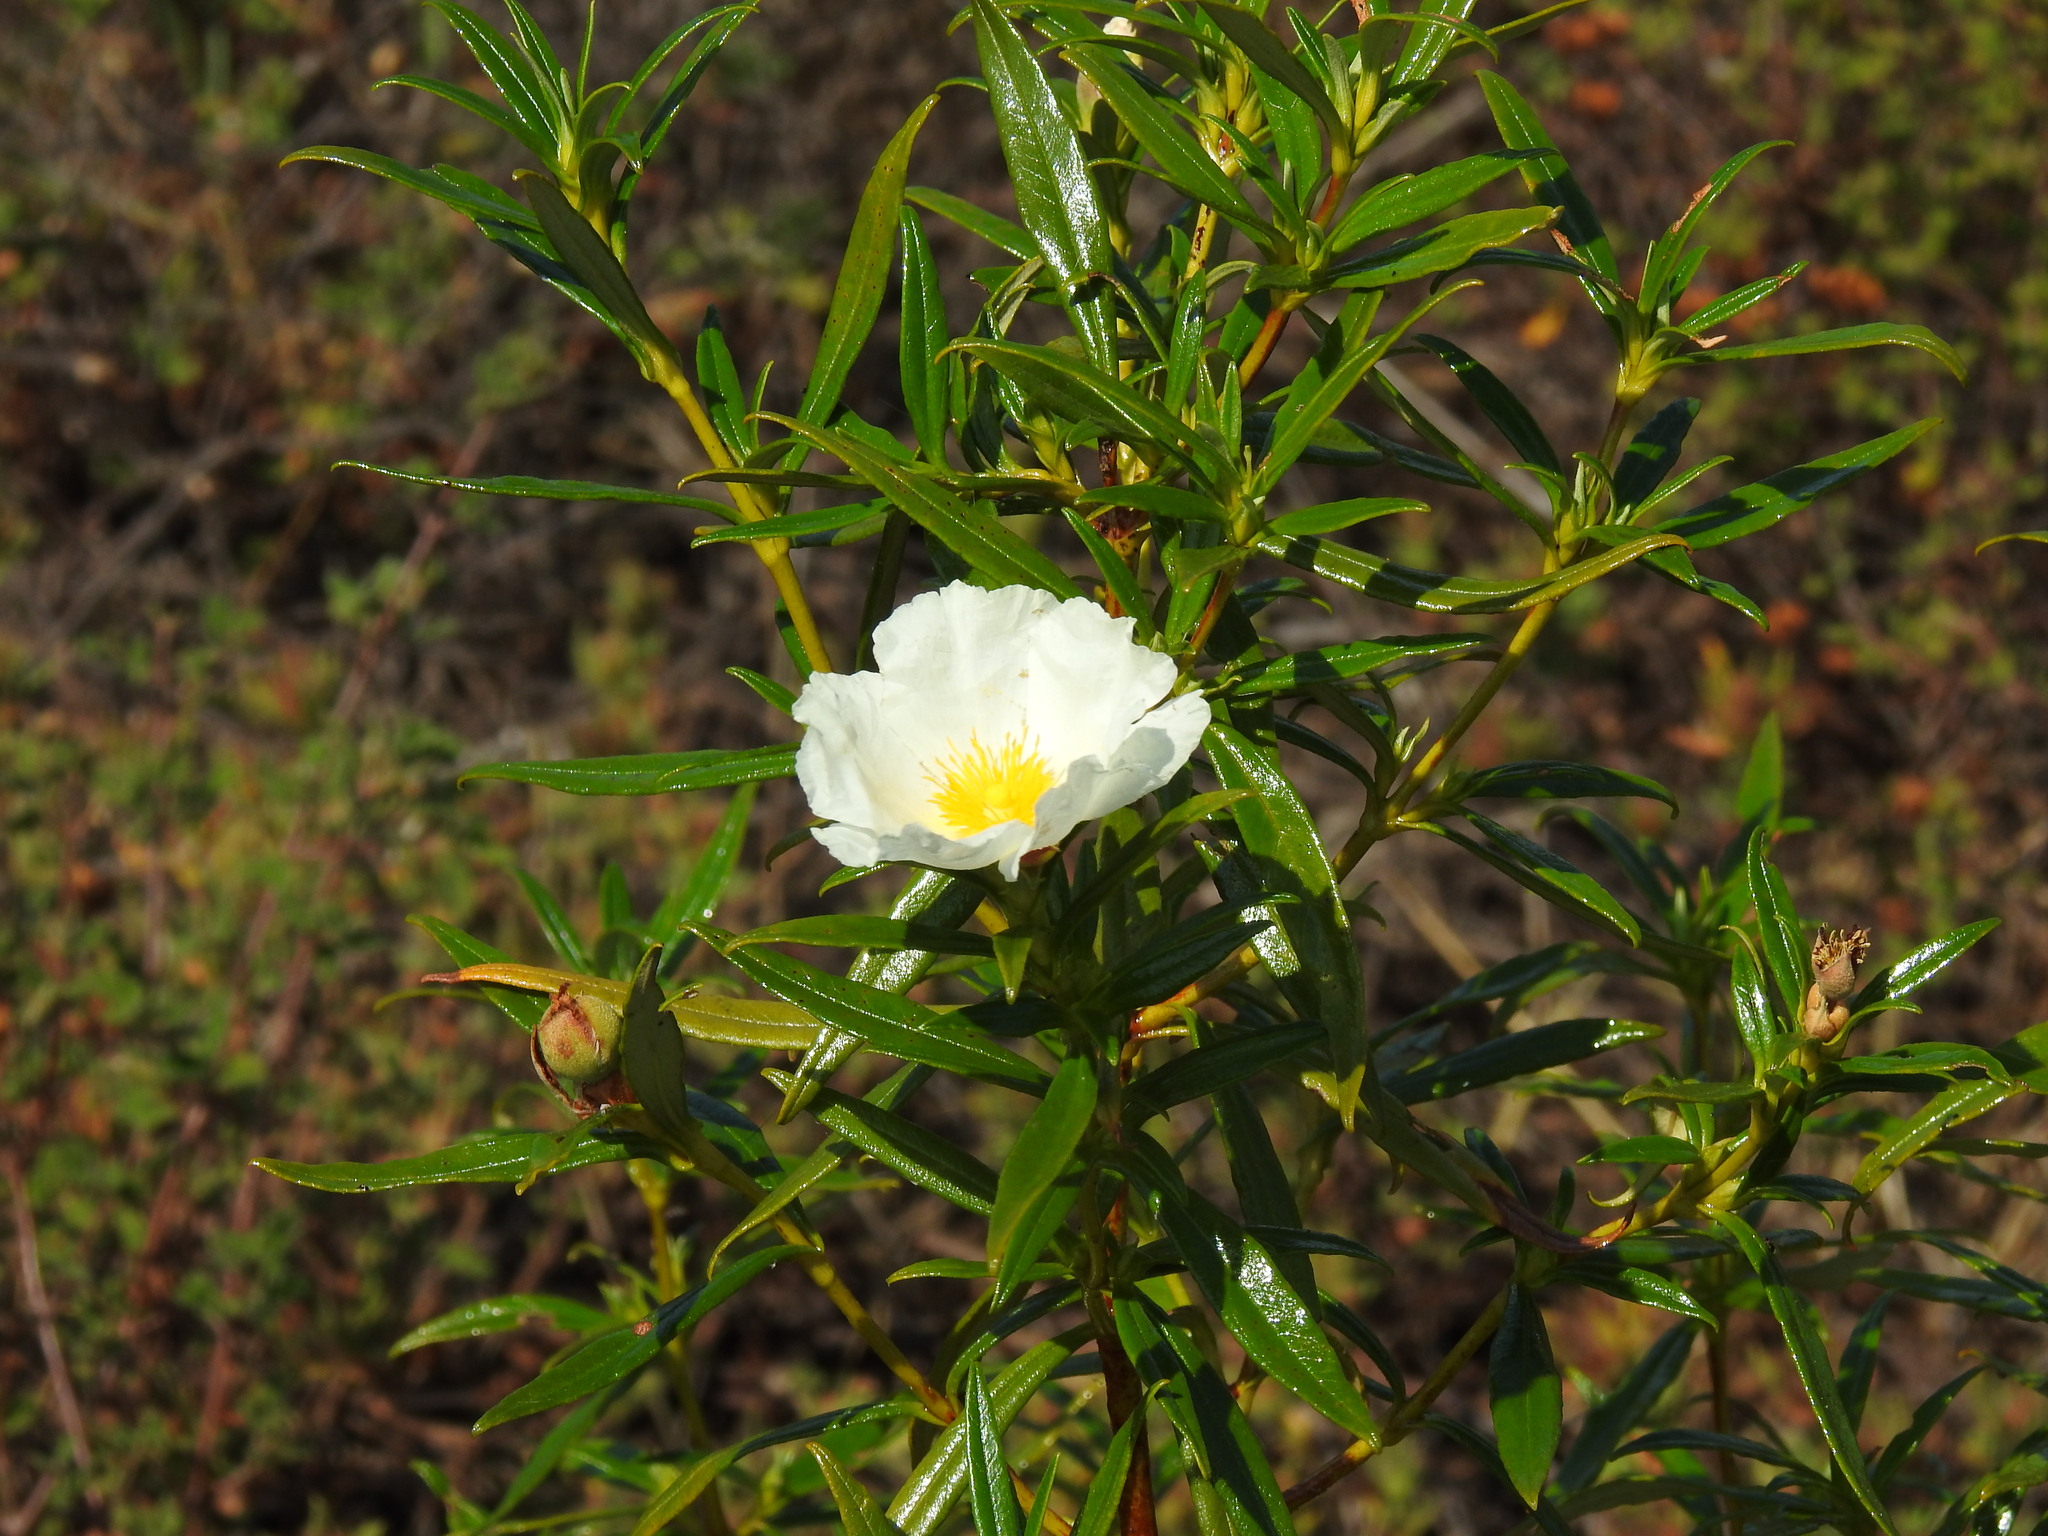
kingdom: Plantae
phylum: Tracheophyta
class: Magnoliopsida
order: Malvales
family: Cistaceae
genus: Cistus
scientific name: Cistus ladanifer
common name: Common gum cistus
